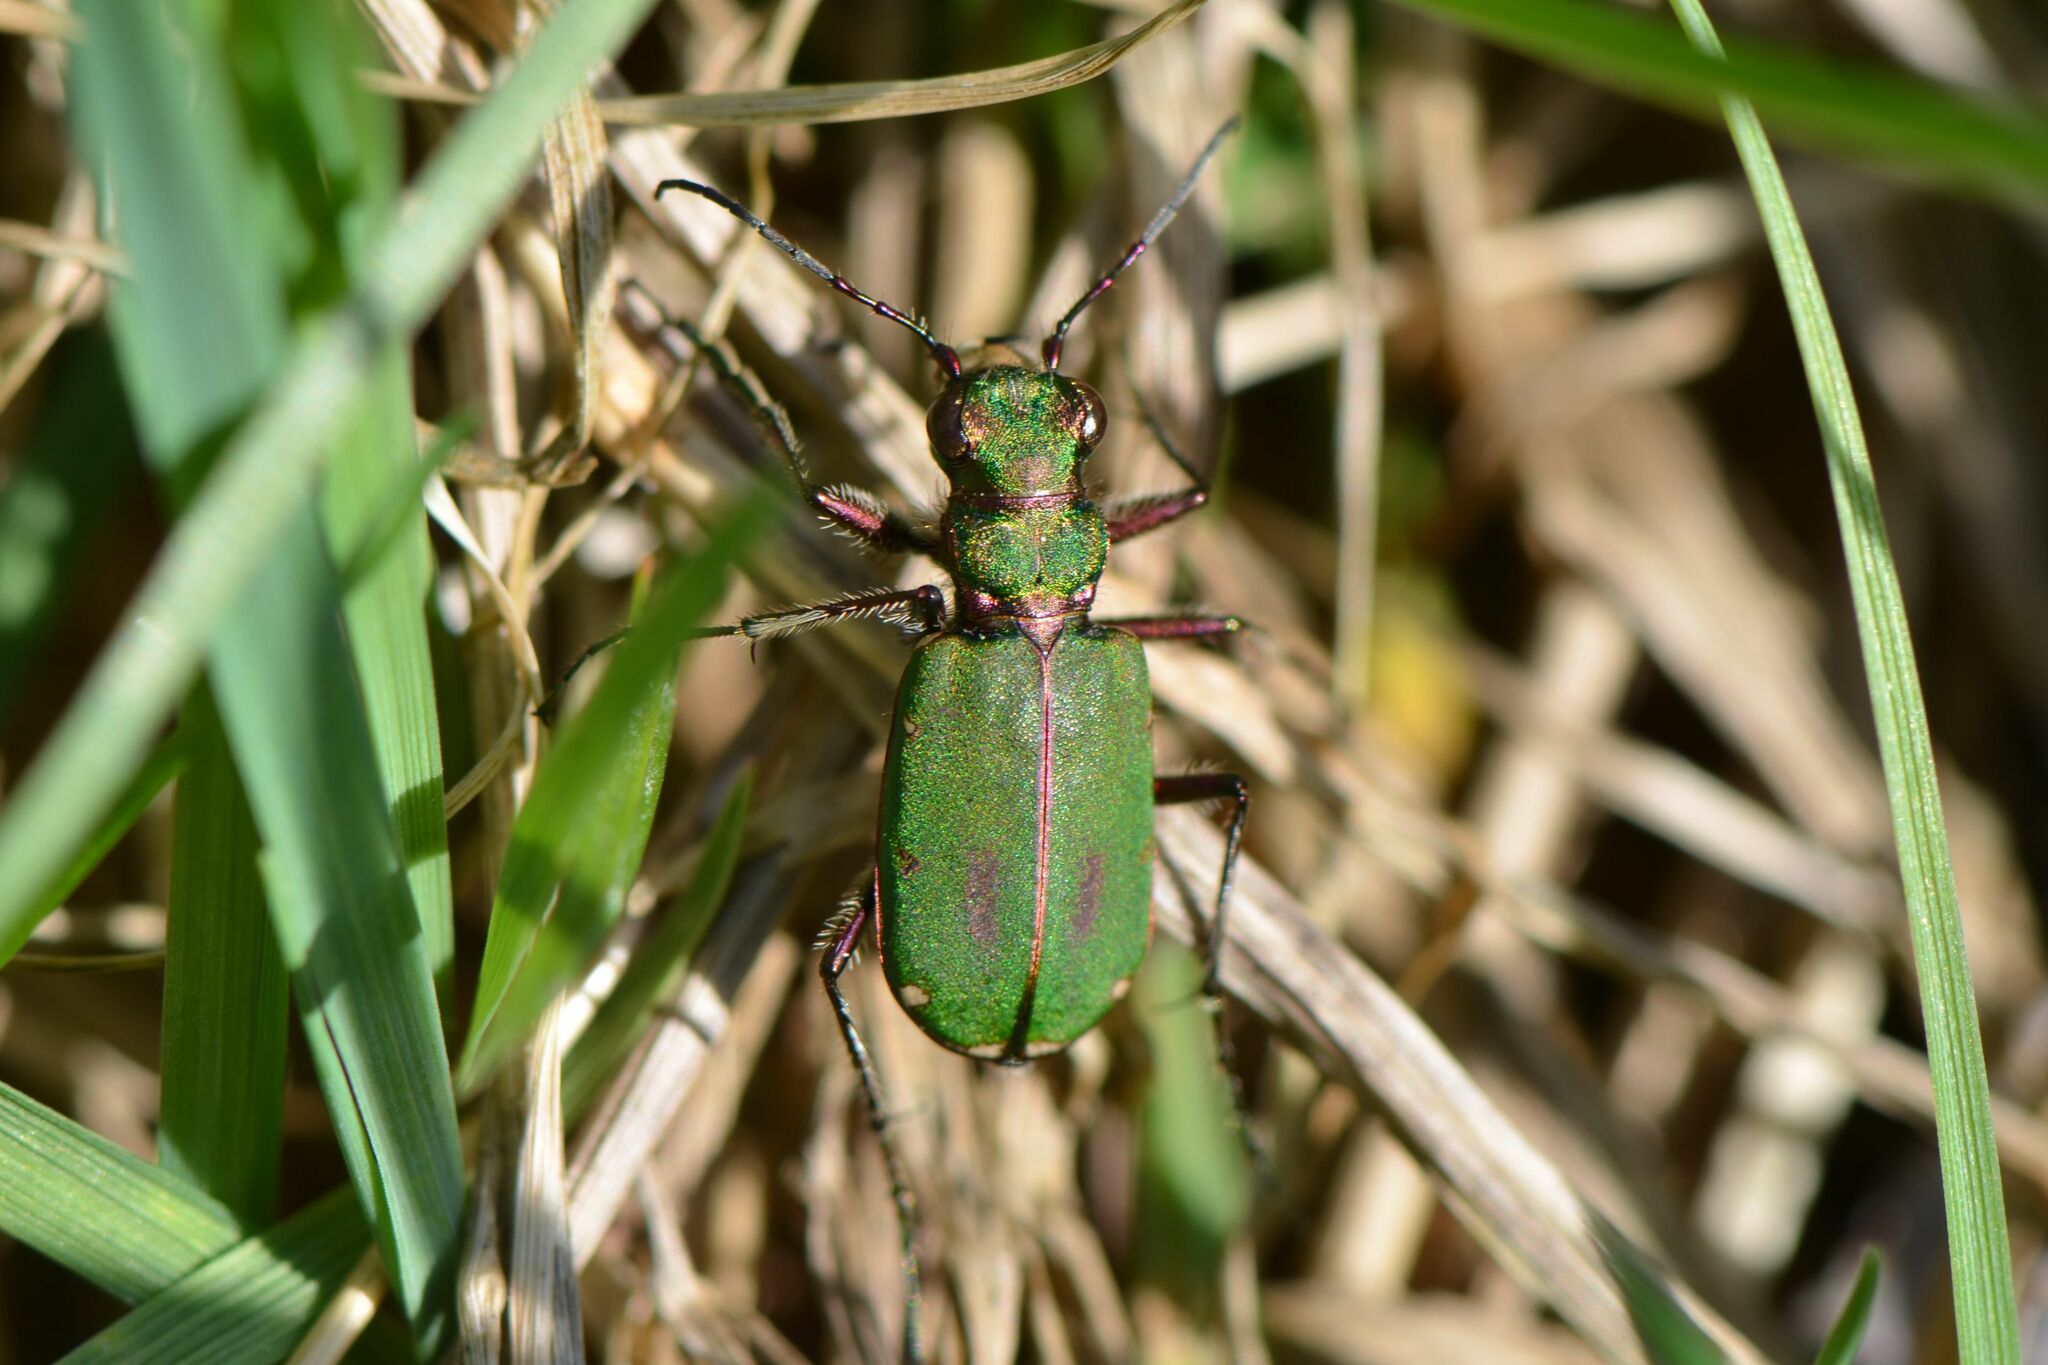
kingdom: Animalia
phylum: Arthropoda
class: Insecta
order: Coleoptera
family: Carabidae
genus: Cicindela
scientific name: Cicindela campestris
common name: Common tiger beetle
